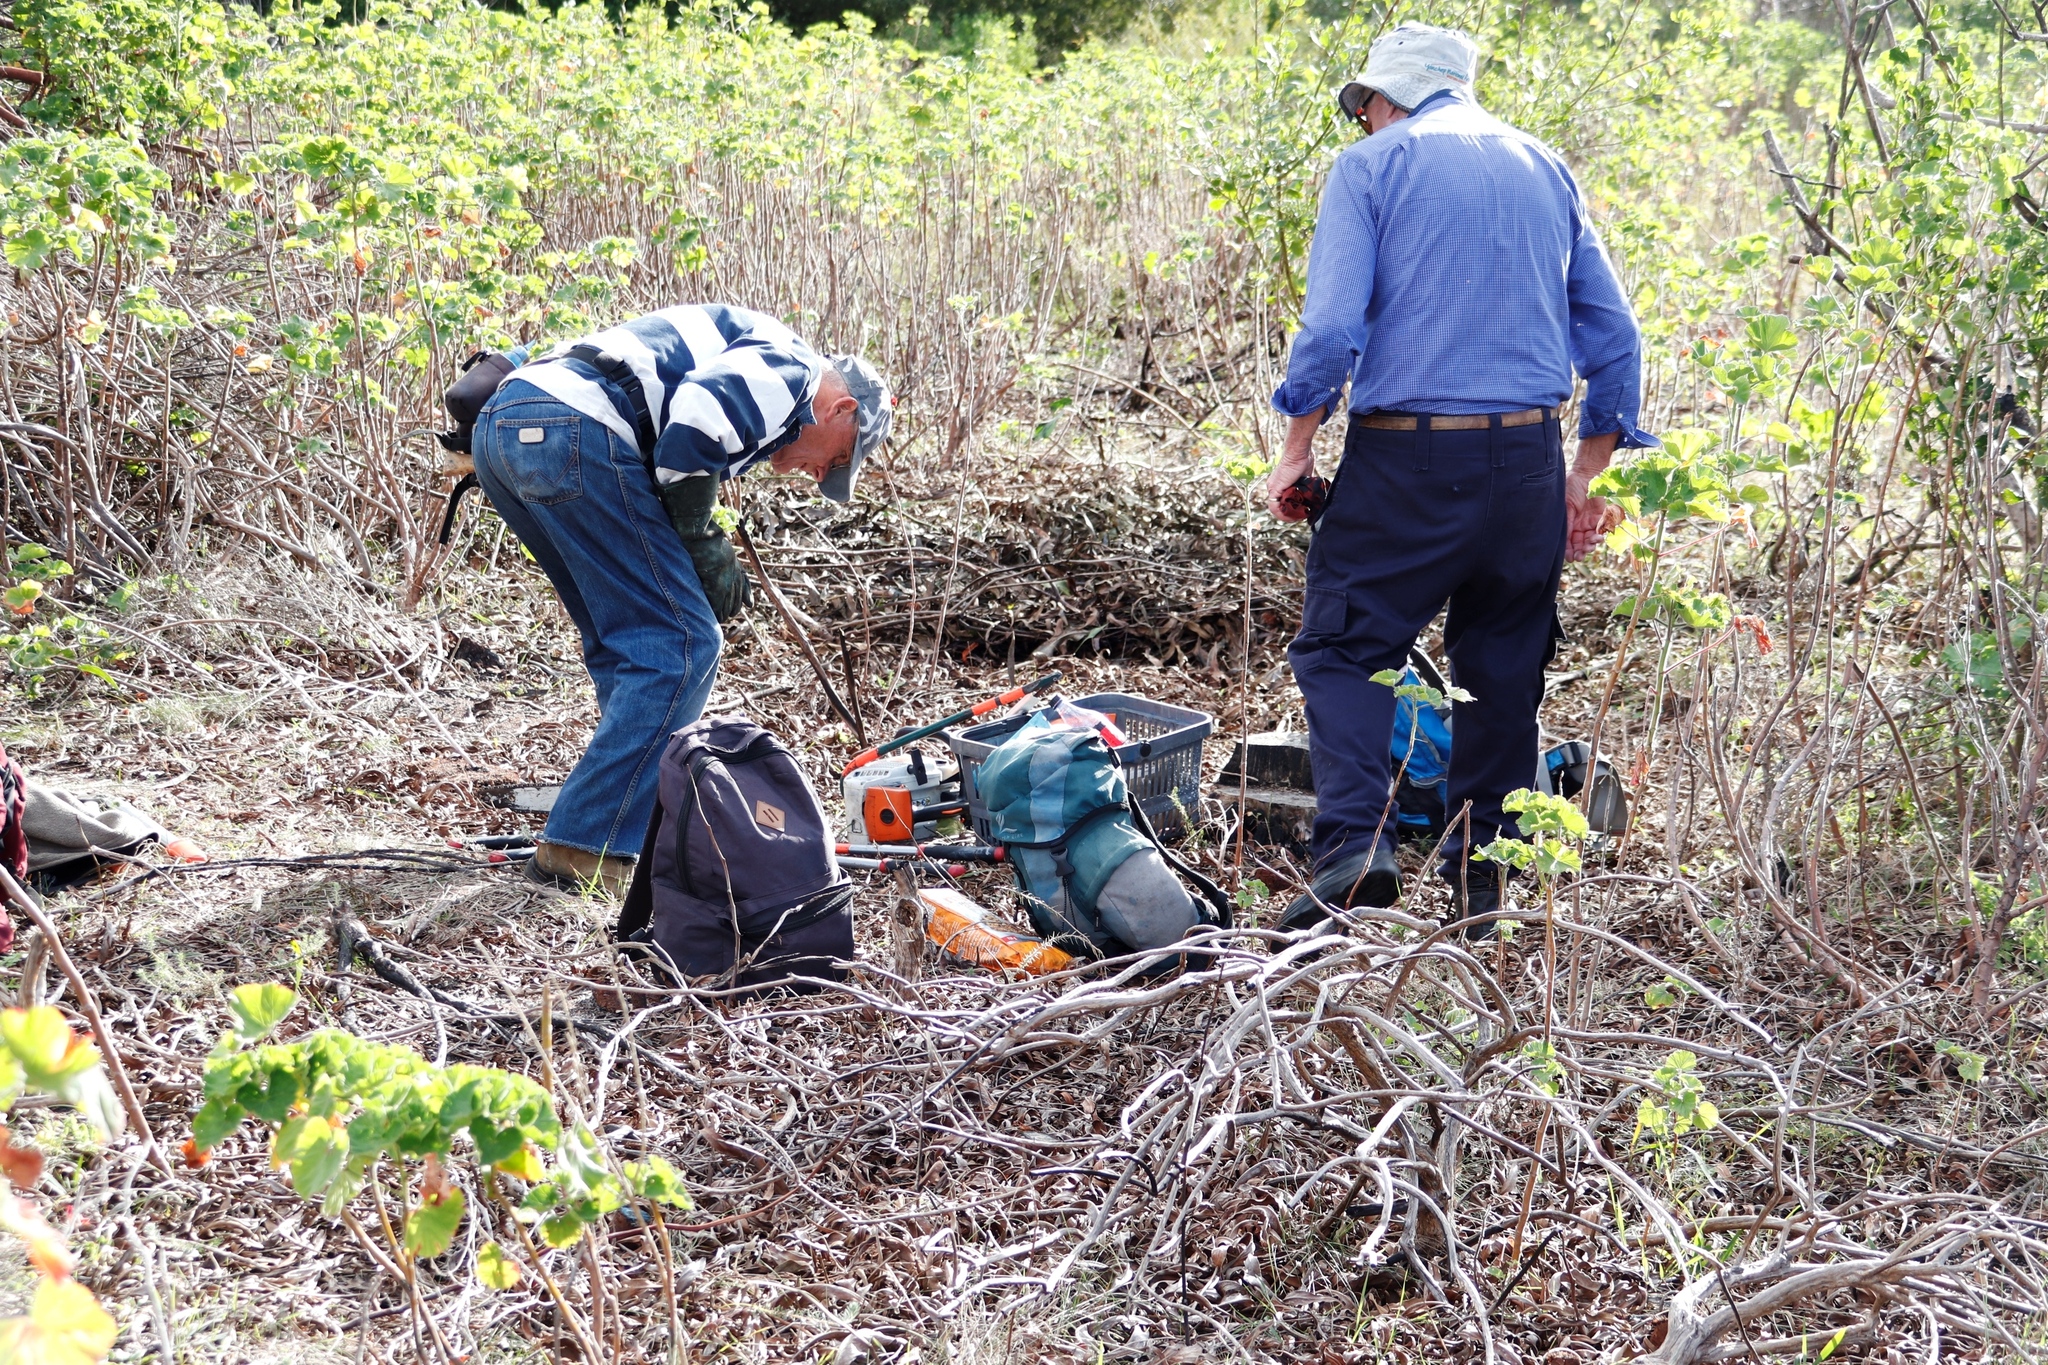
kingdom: Plantae
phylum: Tracheophyta
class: Magnoliopsida
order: Geraniales
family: Geraniaceae
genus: Pelargonium
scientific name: Pelargonium cucullatum
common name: Tree pelargonium
